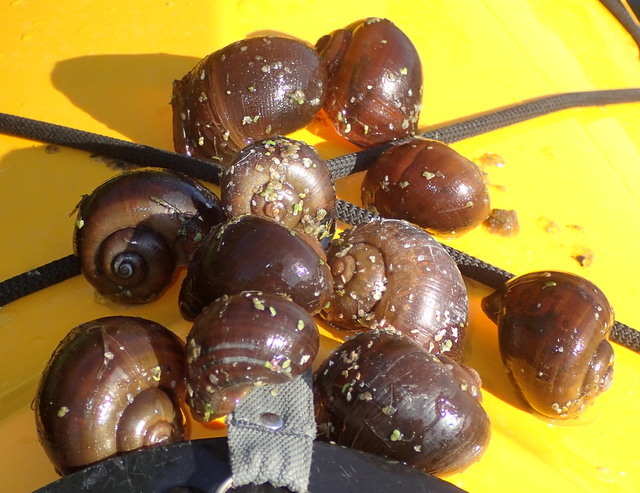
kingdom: Animalia
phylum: Mollusca
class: Gastropoda
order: Architaenioglossa
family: Ampullariidae
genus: Pomacea
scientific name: Pomacea paludosa
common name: Florida applesnail
